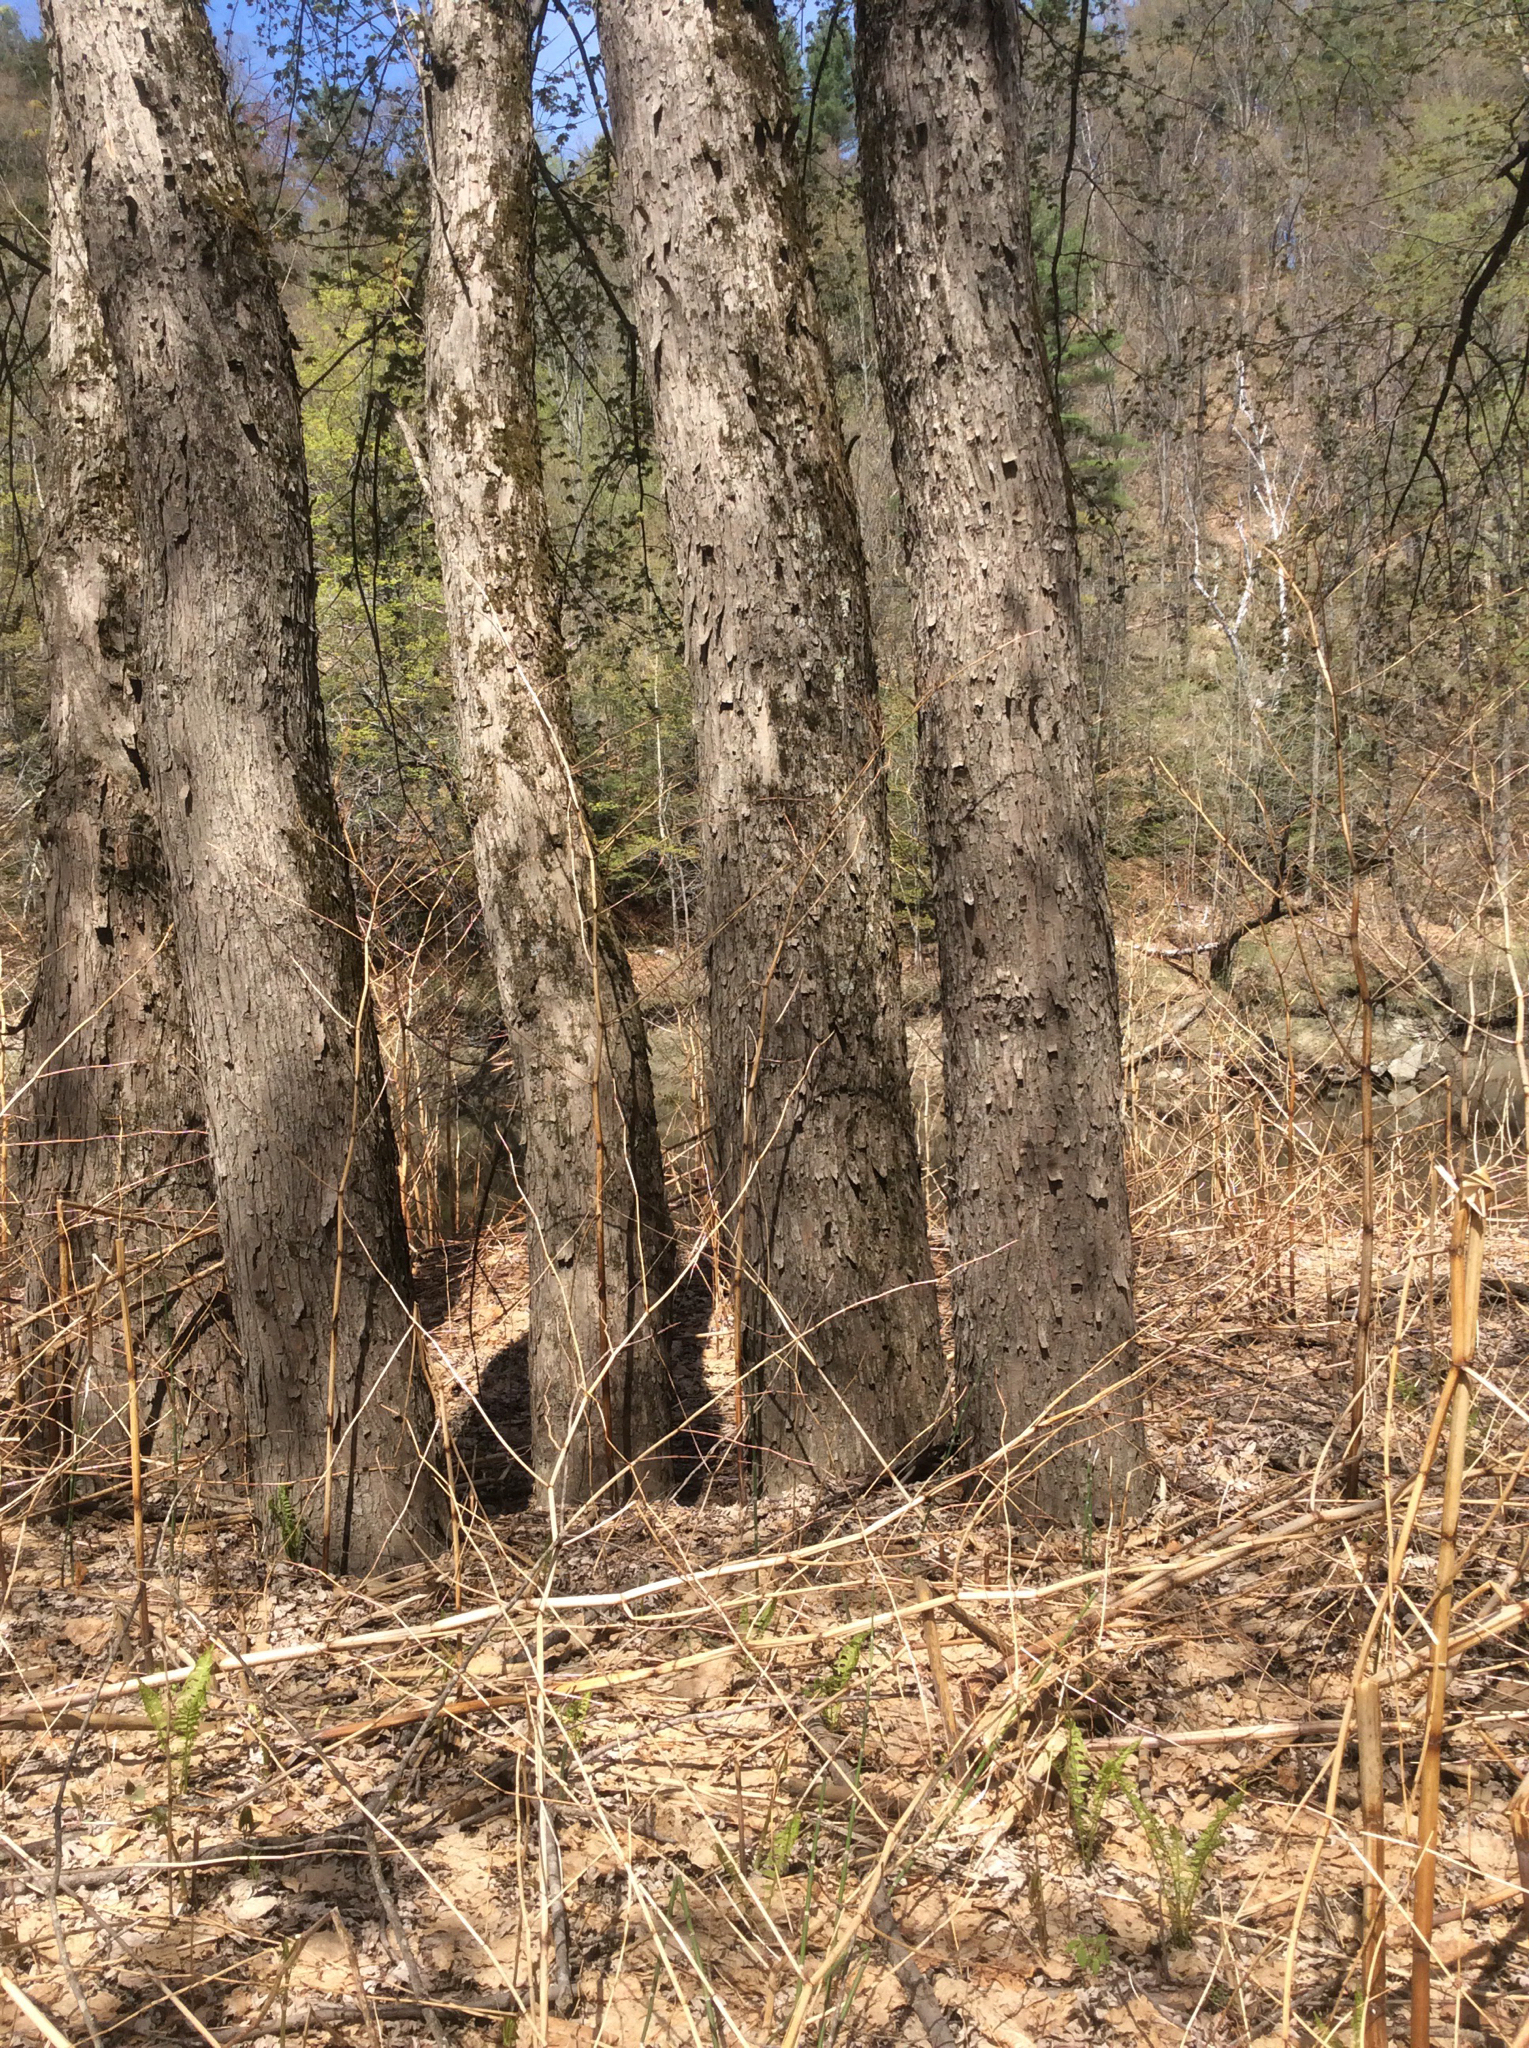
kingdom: Plantae
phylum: Tracheophyta
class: Magnoliopsida
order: Sapindales
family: Sapindaceae
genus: Acer
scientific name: Acer saccharinum
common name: Silver maple
